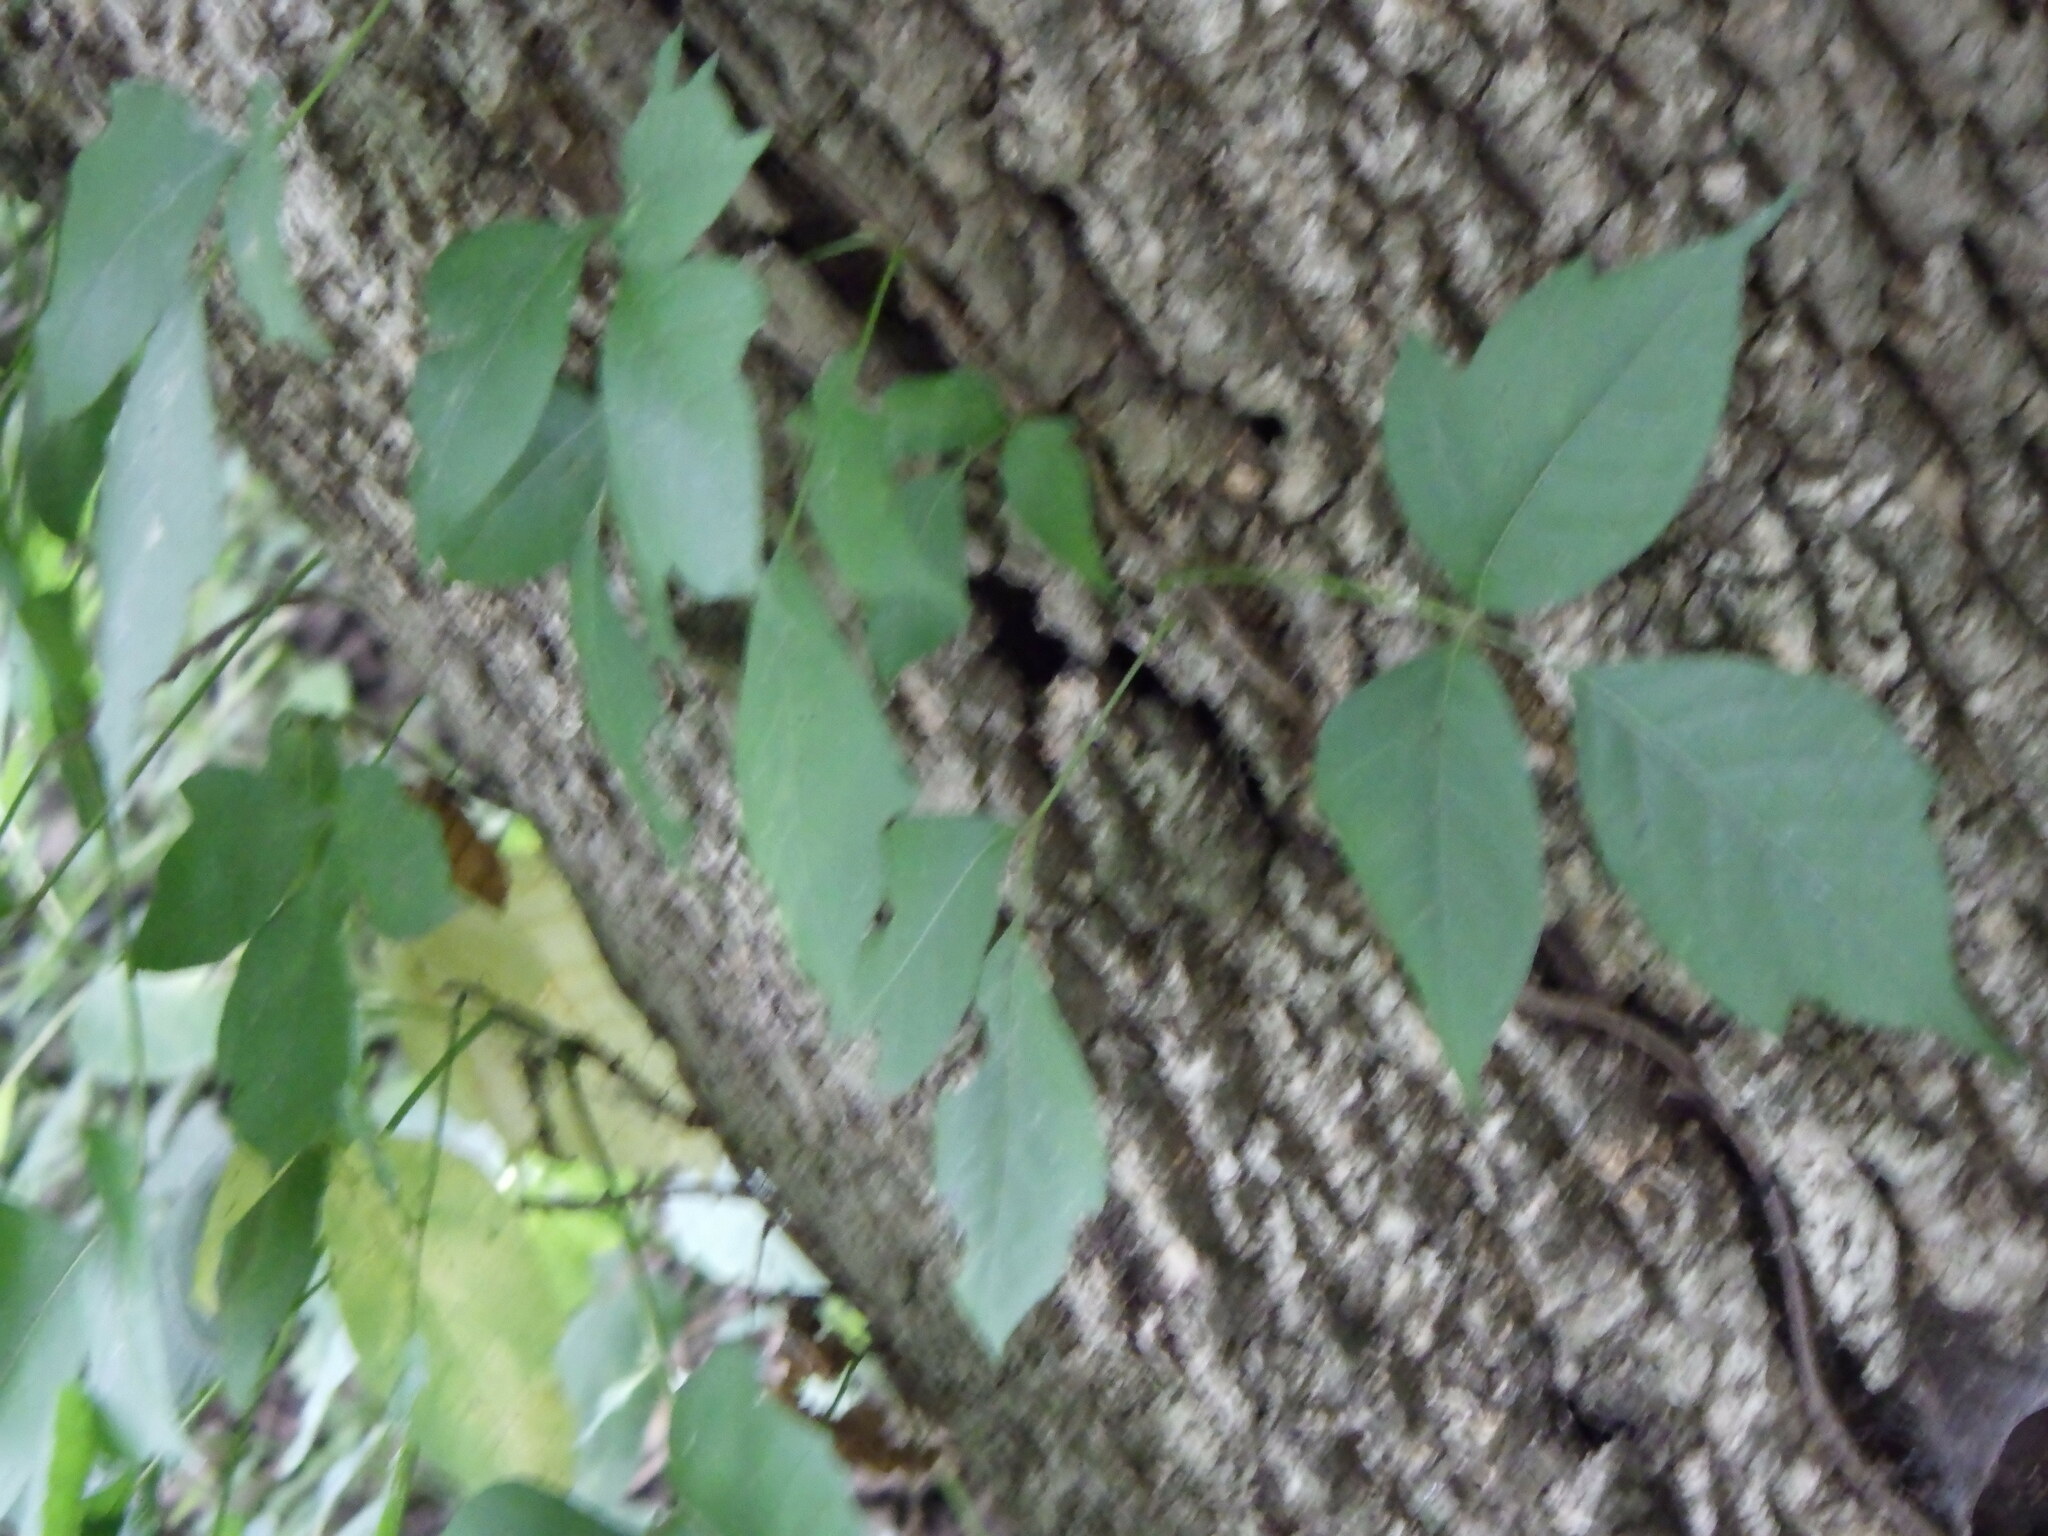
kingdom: Plantae
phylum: Tracheophyta
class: Magnoliopsida
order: Sapindales
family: Anacardiaceae
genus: Toxicodendron
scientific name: Toxicodendron radicans
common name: Poison ivy
